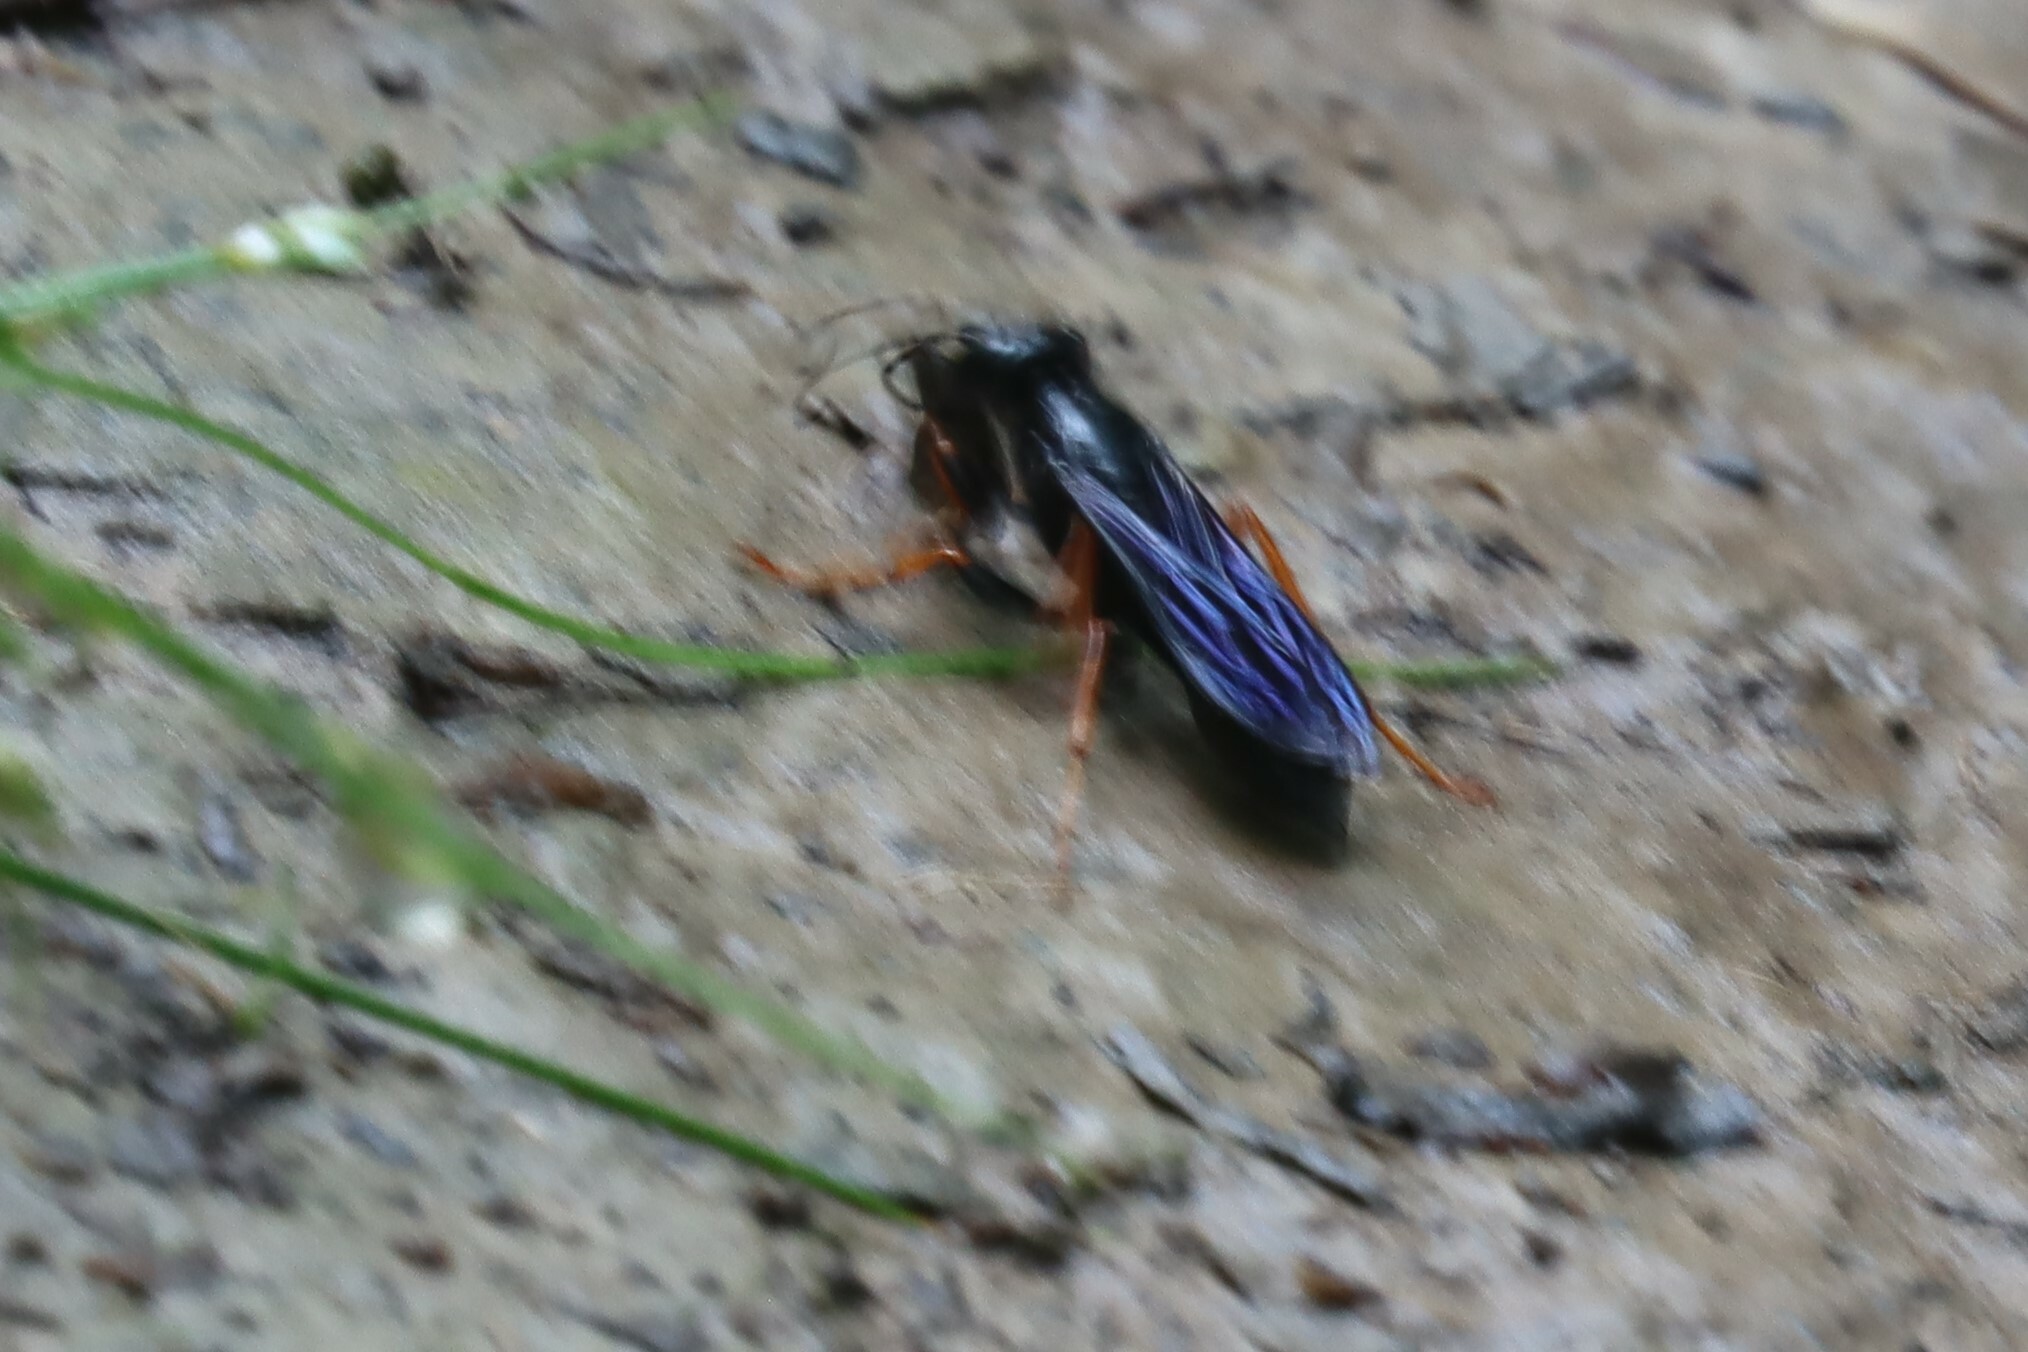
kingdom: Animalia
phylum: Arthropoda
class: Insecta
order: Hymenoptera
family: Sphecidae
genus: Podium
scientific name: Podium luctuosum
